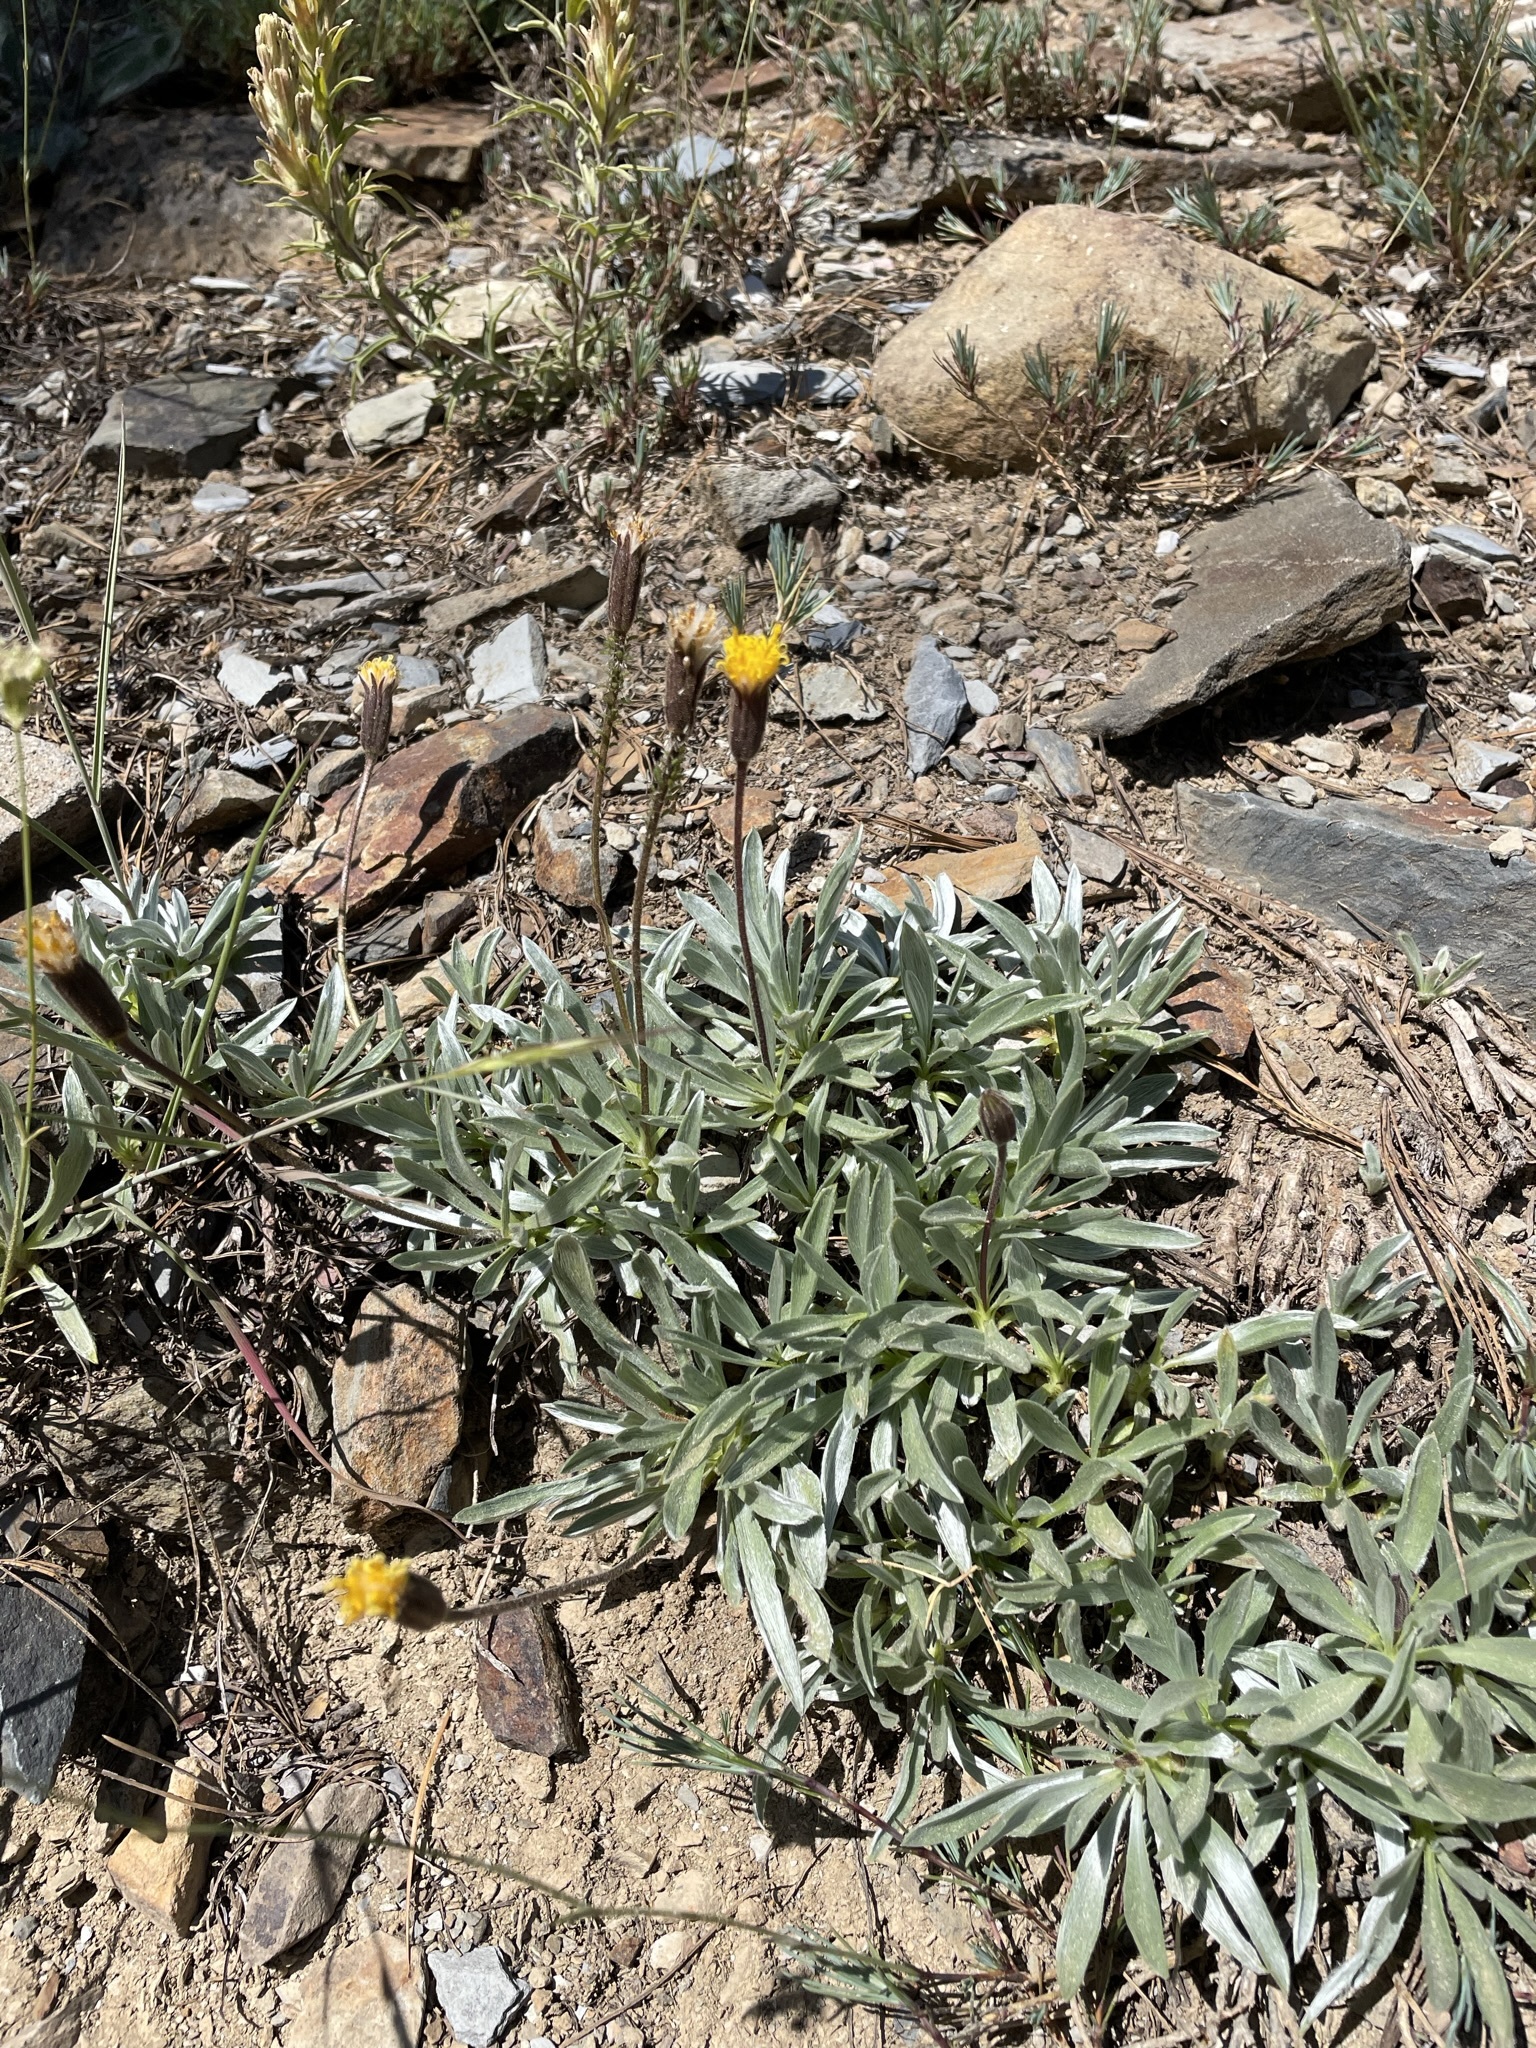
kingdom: Plantae
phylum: Tracheophyta
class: Magnoliopsida
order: Asterales
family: Asteraceae
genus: Raillardella
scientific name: Raillardella argentea
